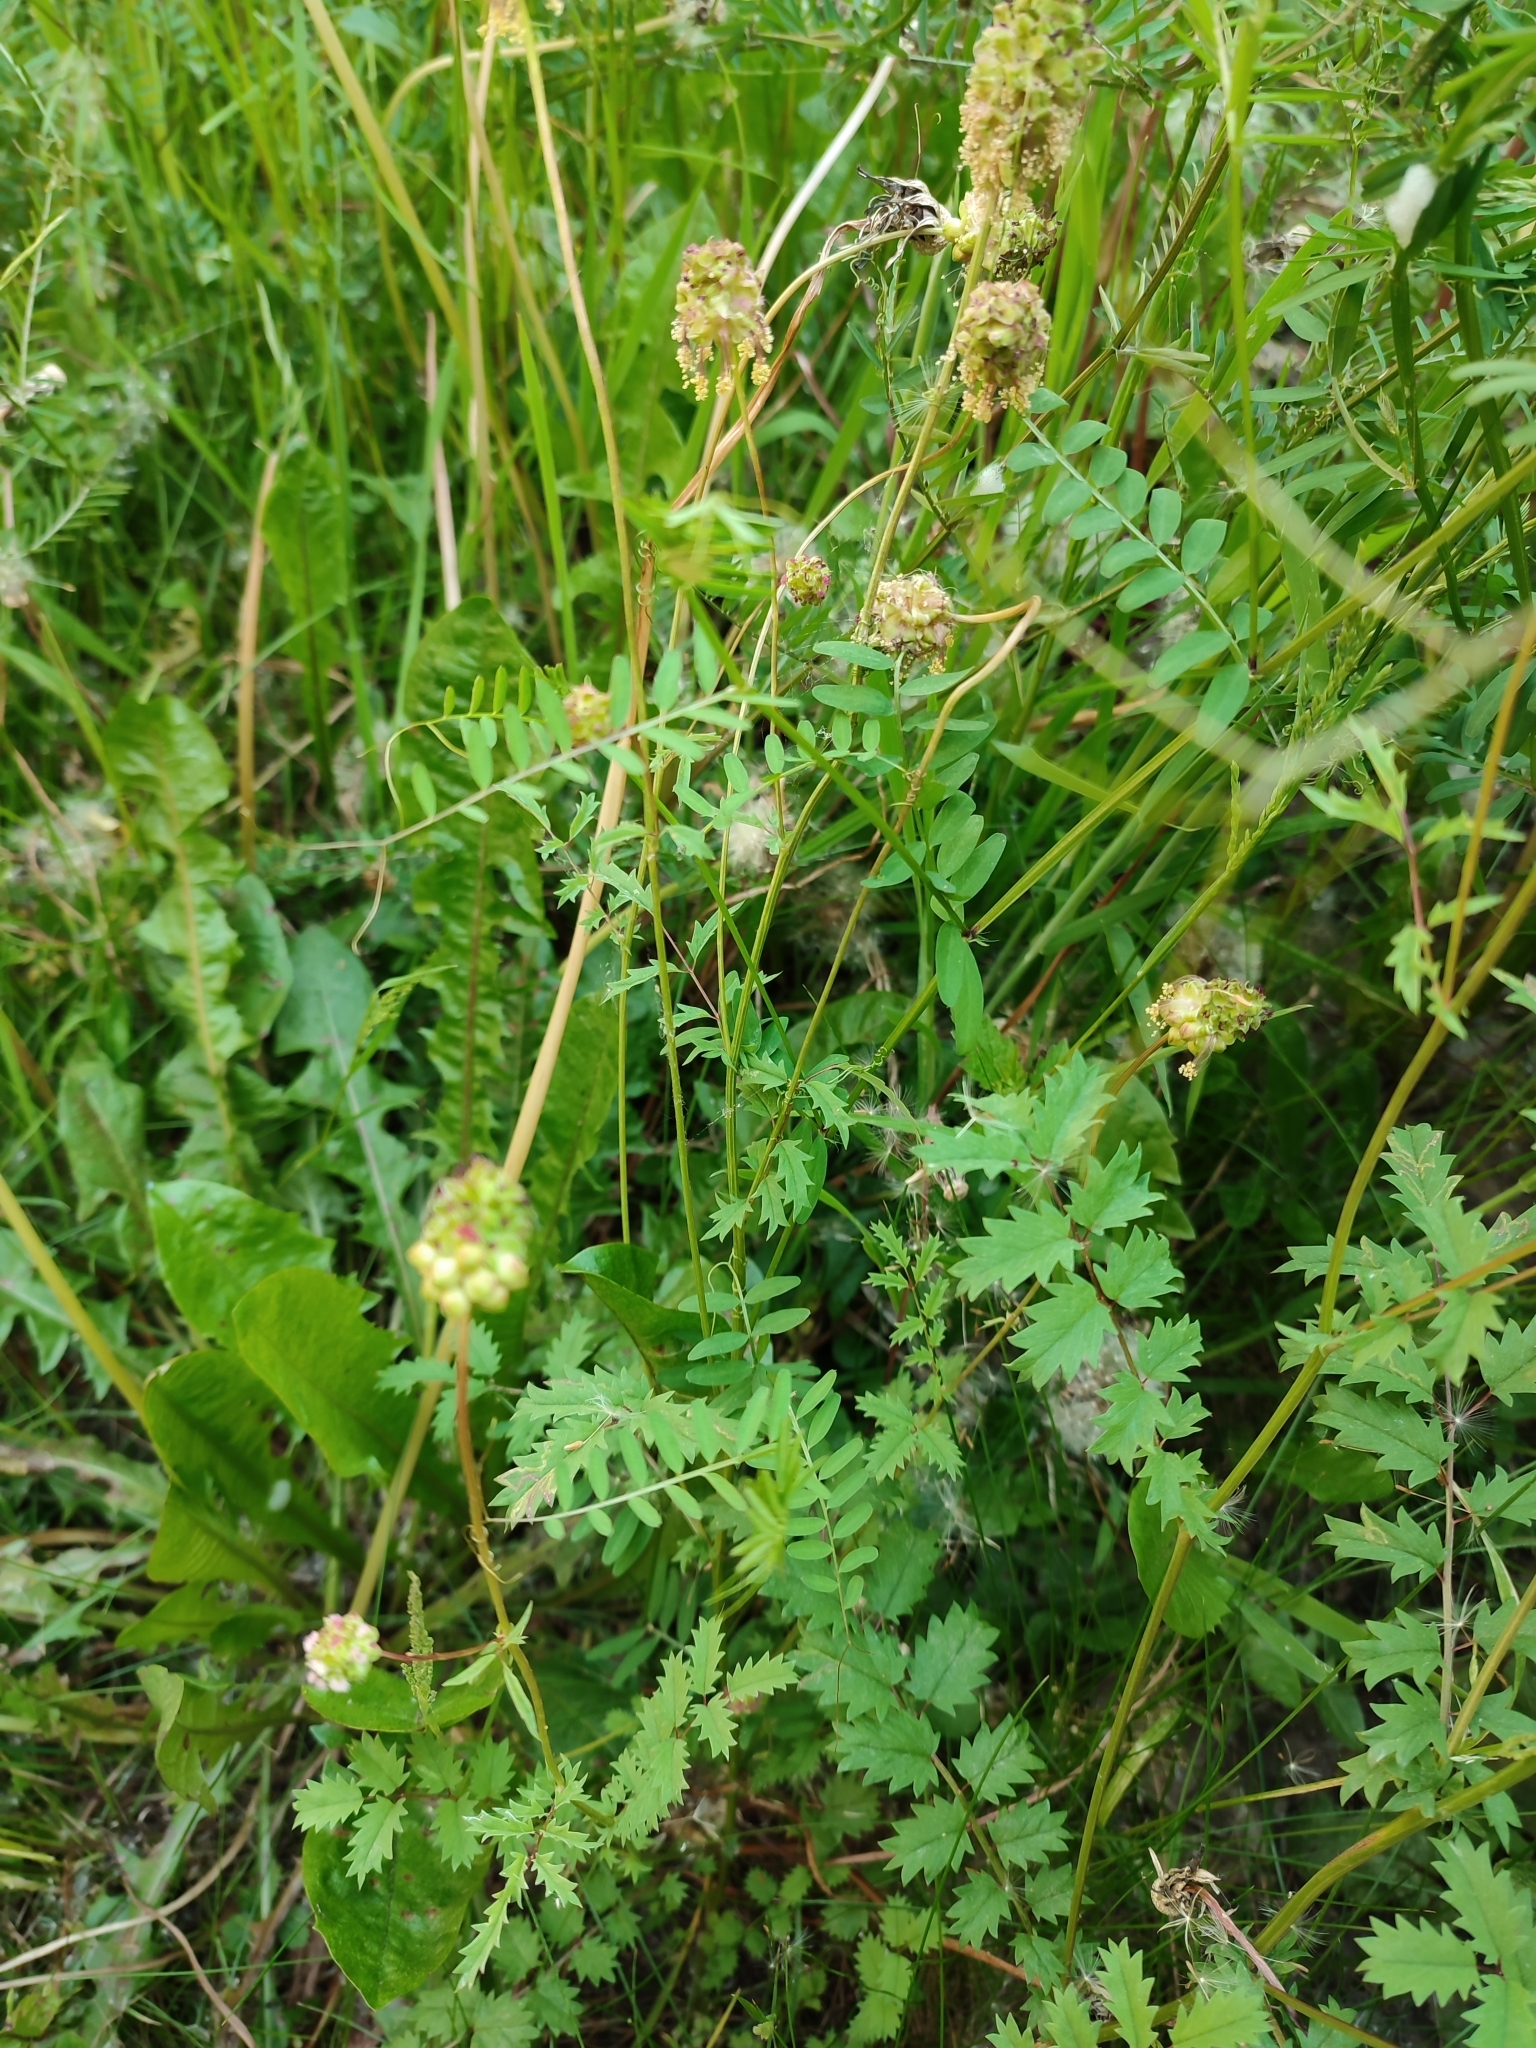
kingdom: Plantae
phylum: Tracheophyta
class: Magnoliopsida
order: Rosales
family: Rosaceae
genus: Poterium
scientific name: Poterium sanguisorba
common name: Salad burnet
